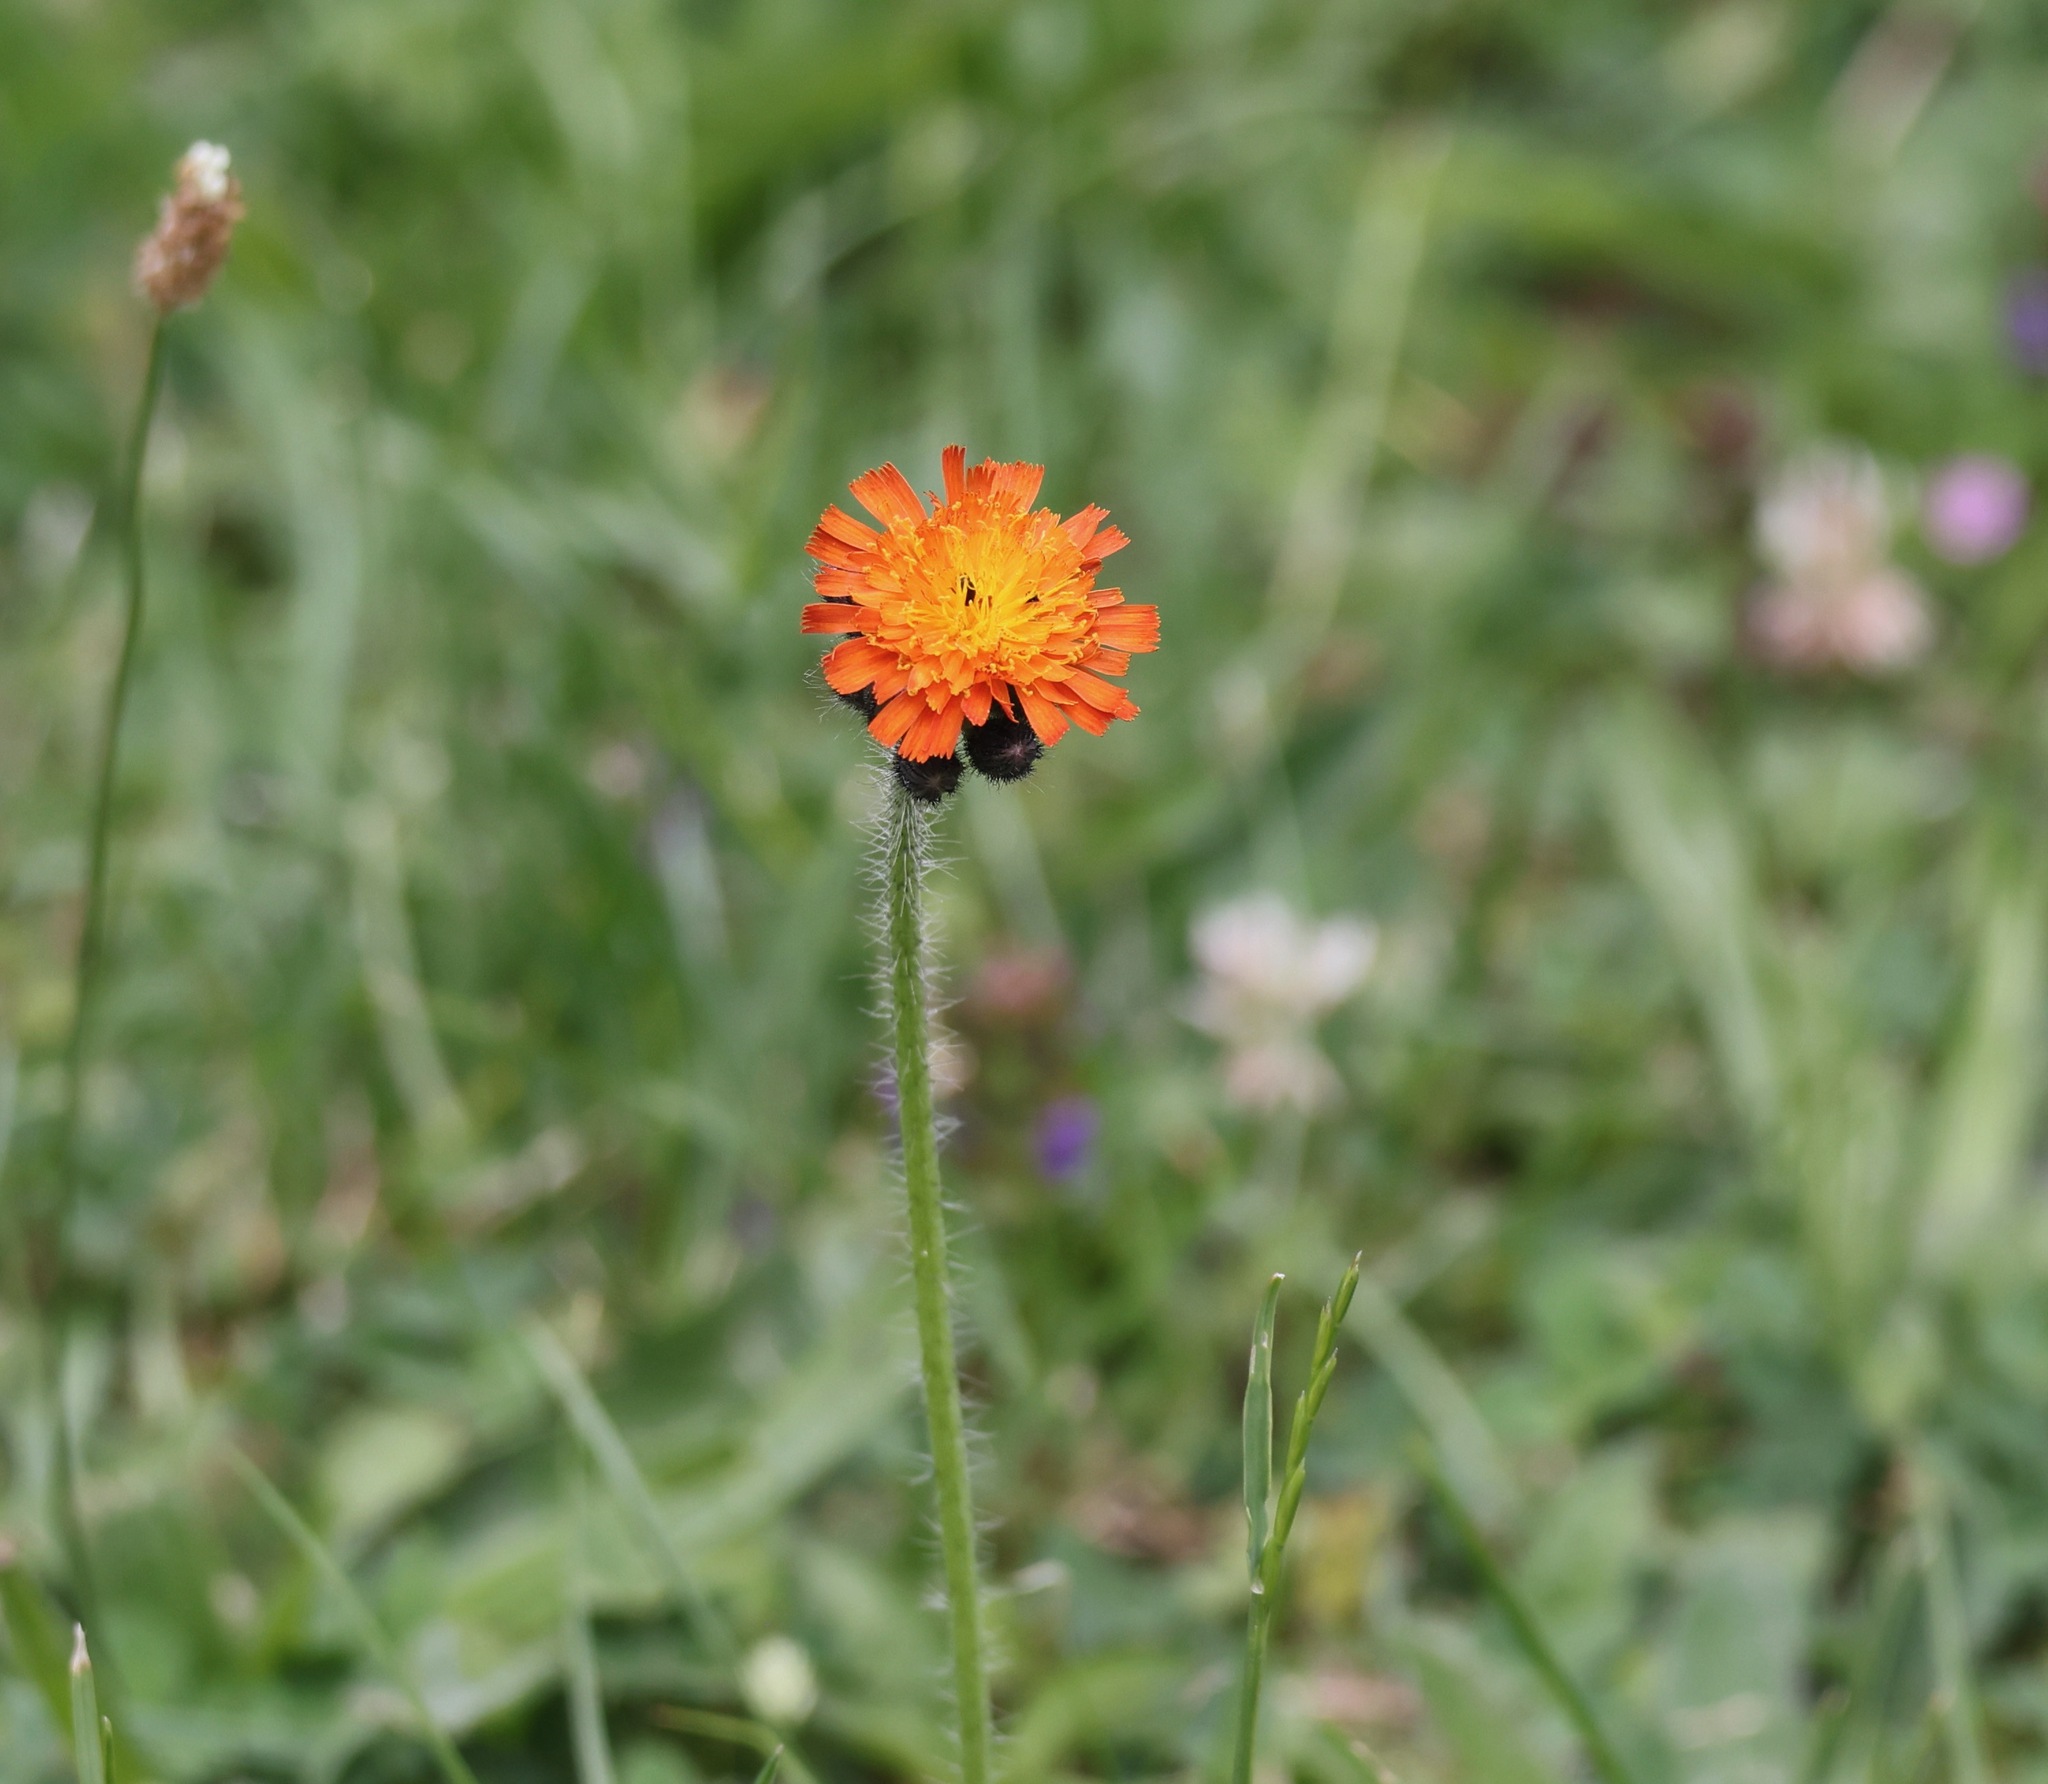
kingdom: Plantae
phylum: Tracheophyta
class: Magnoliopsida
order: Asterales
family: Asteraceae
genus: Pilosella
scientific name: Pilosella aurantiaca
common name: Fox-and-cubs
